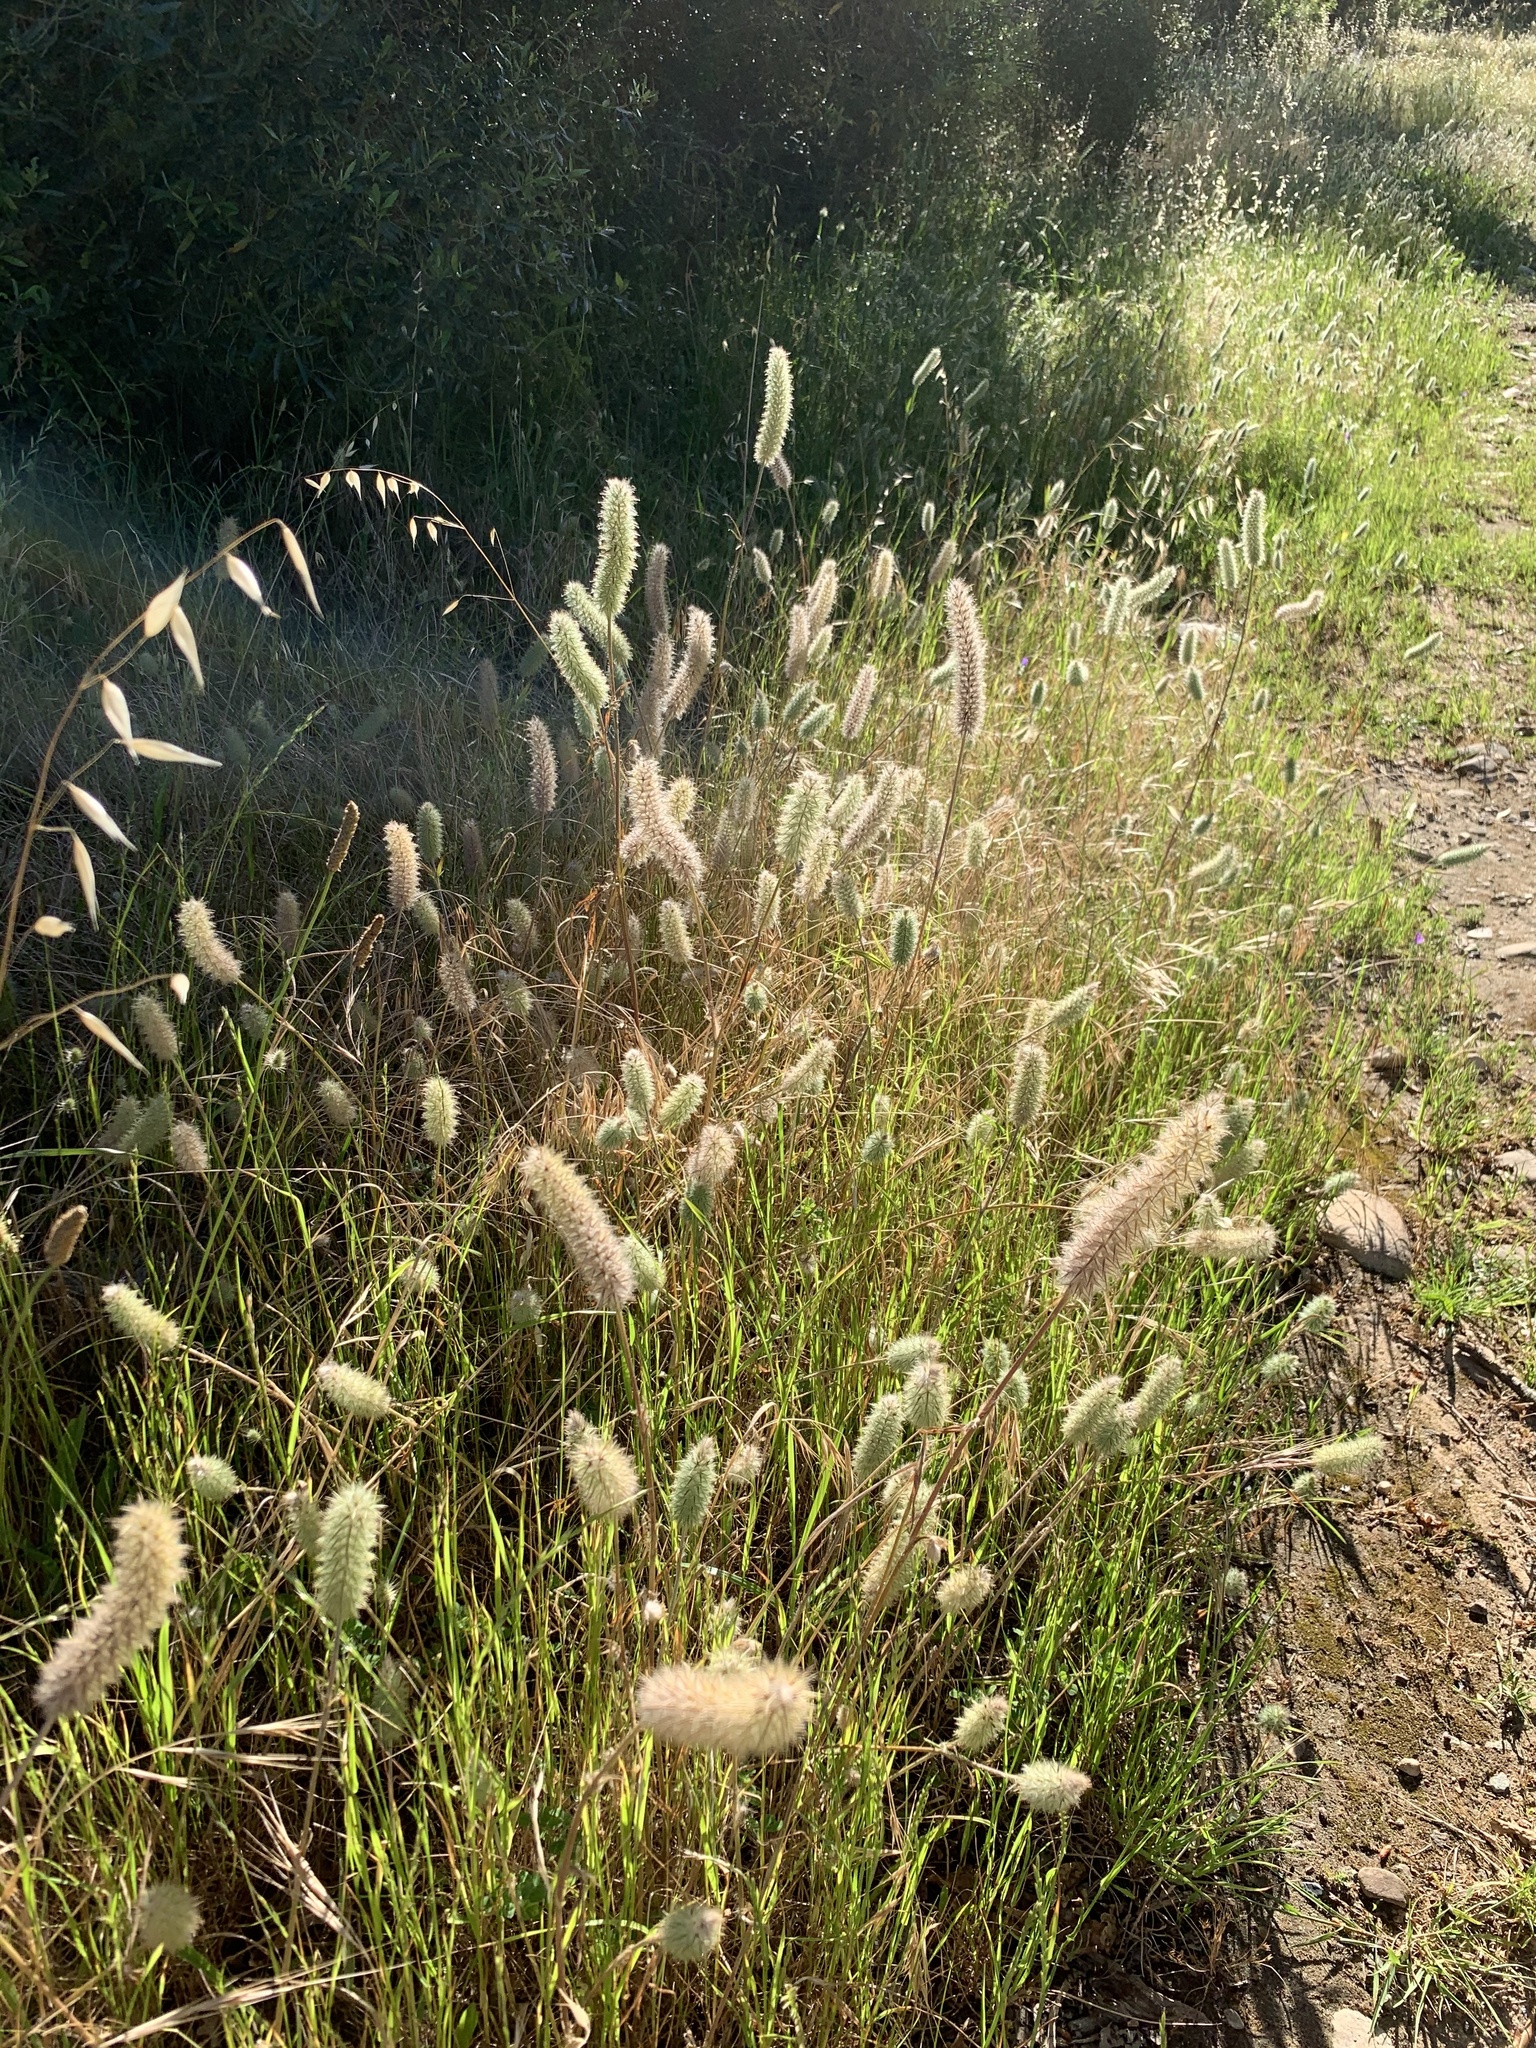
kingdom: Plantae
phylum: Tracheophyta
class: Magnoliopsida
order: Fabales
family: Fabaceae
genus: Trifolium
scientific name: Trifolium angustifolium
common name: Narrow clover
